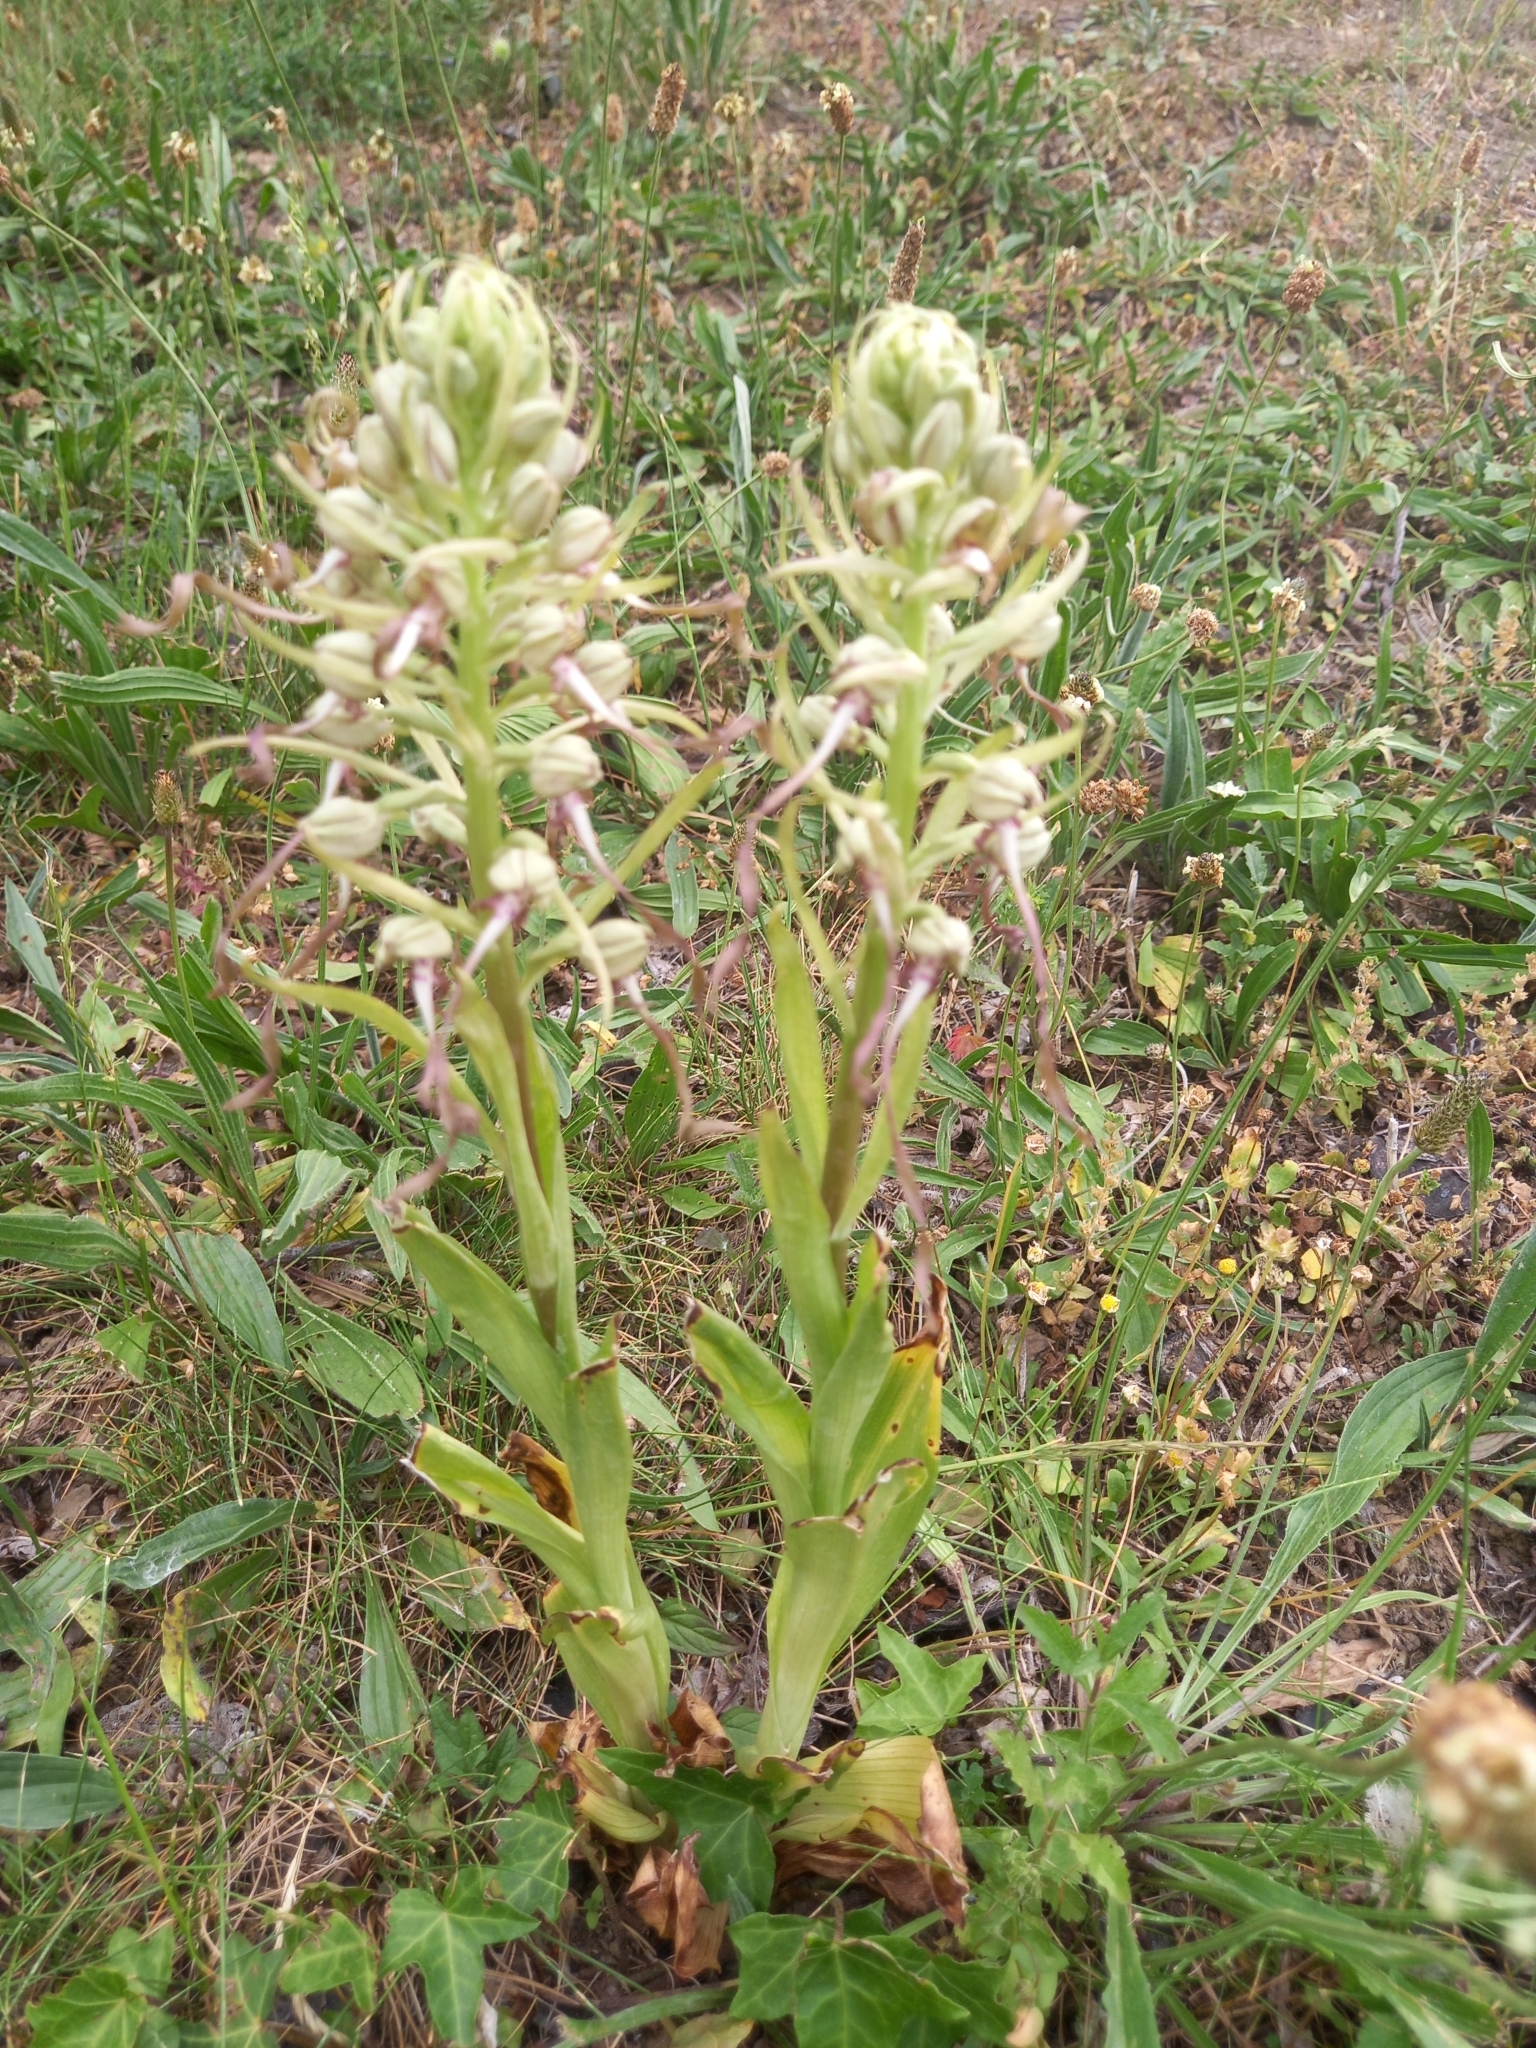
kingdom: Plantae
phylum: Tracheophyta
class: Liliopsida
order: Asparagales
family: Orchidaceae
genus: Himantoglossum
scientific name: Himantoglossum hircinum
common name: Lizard orchid
